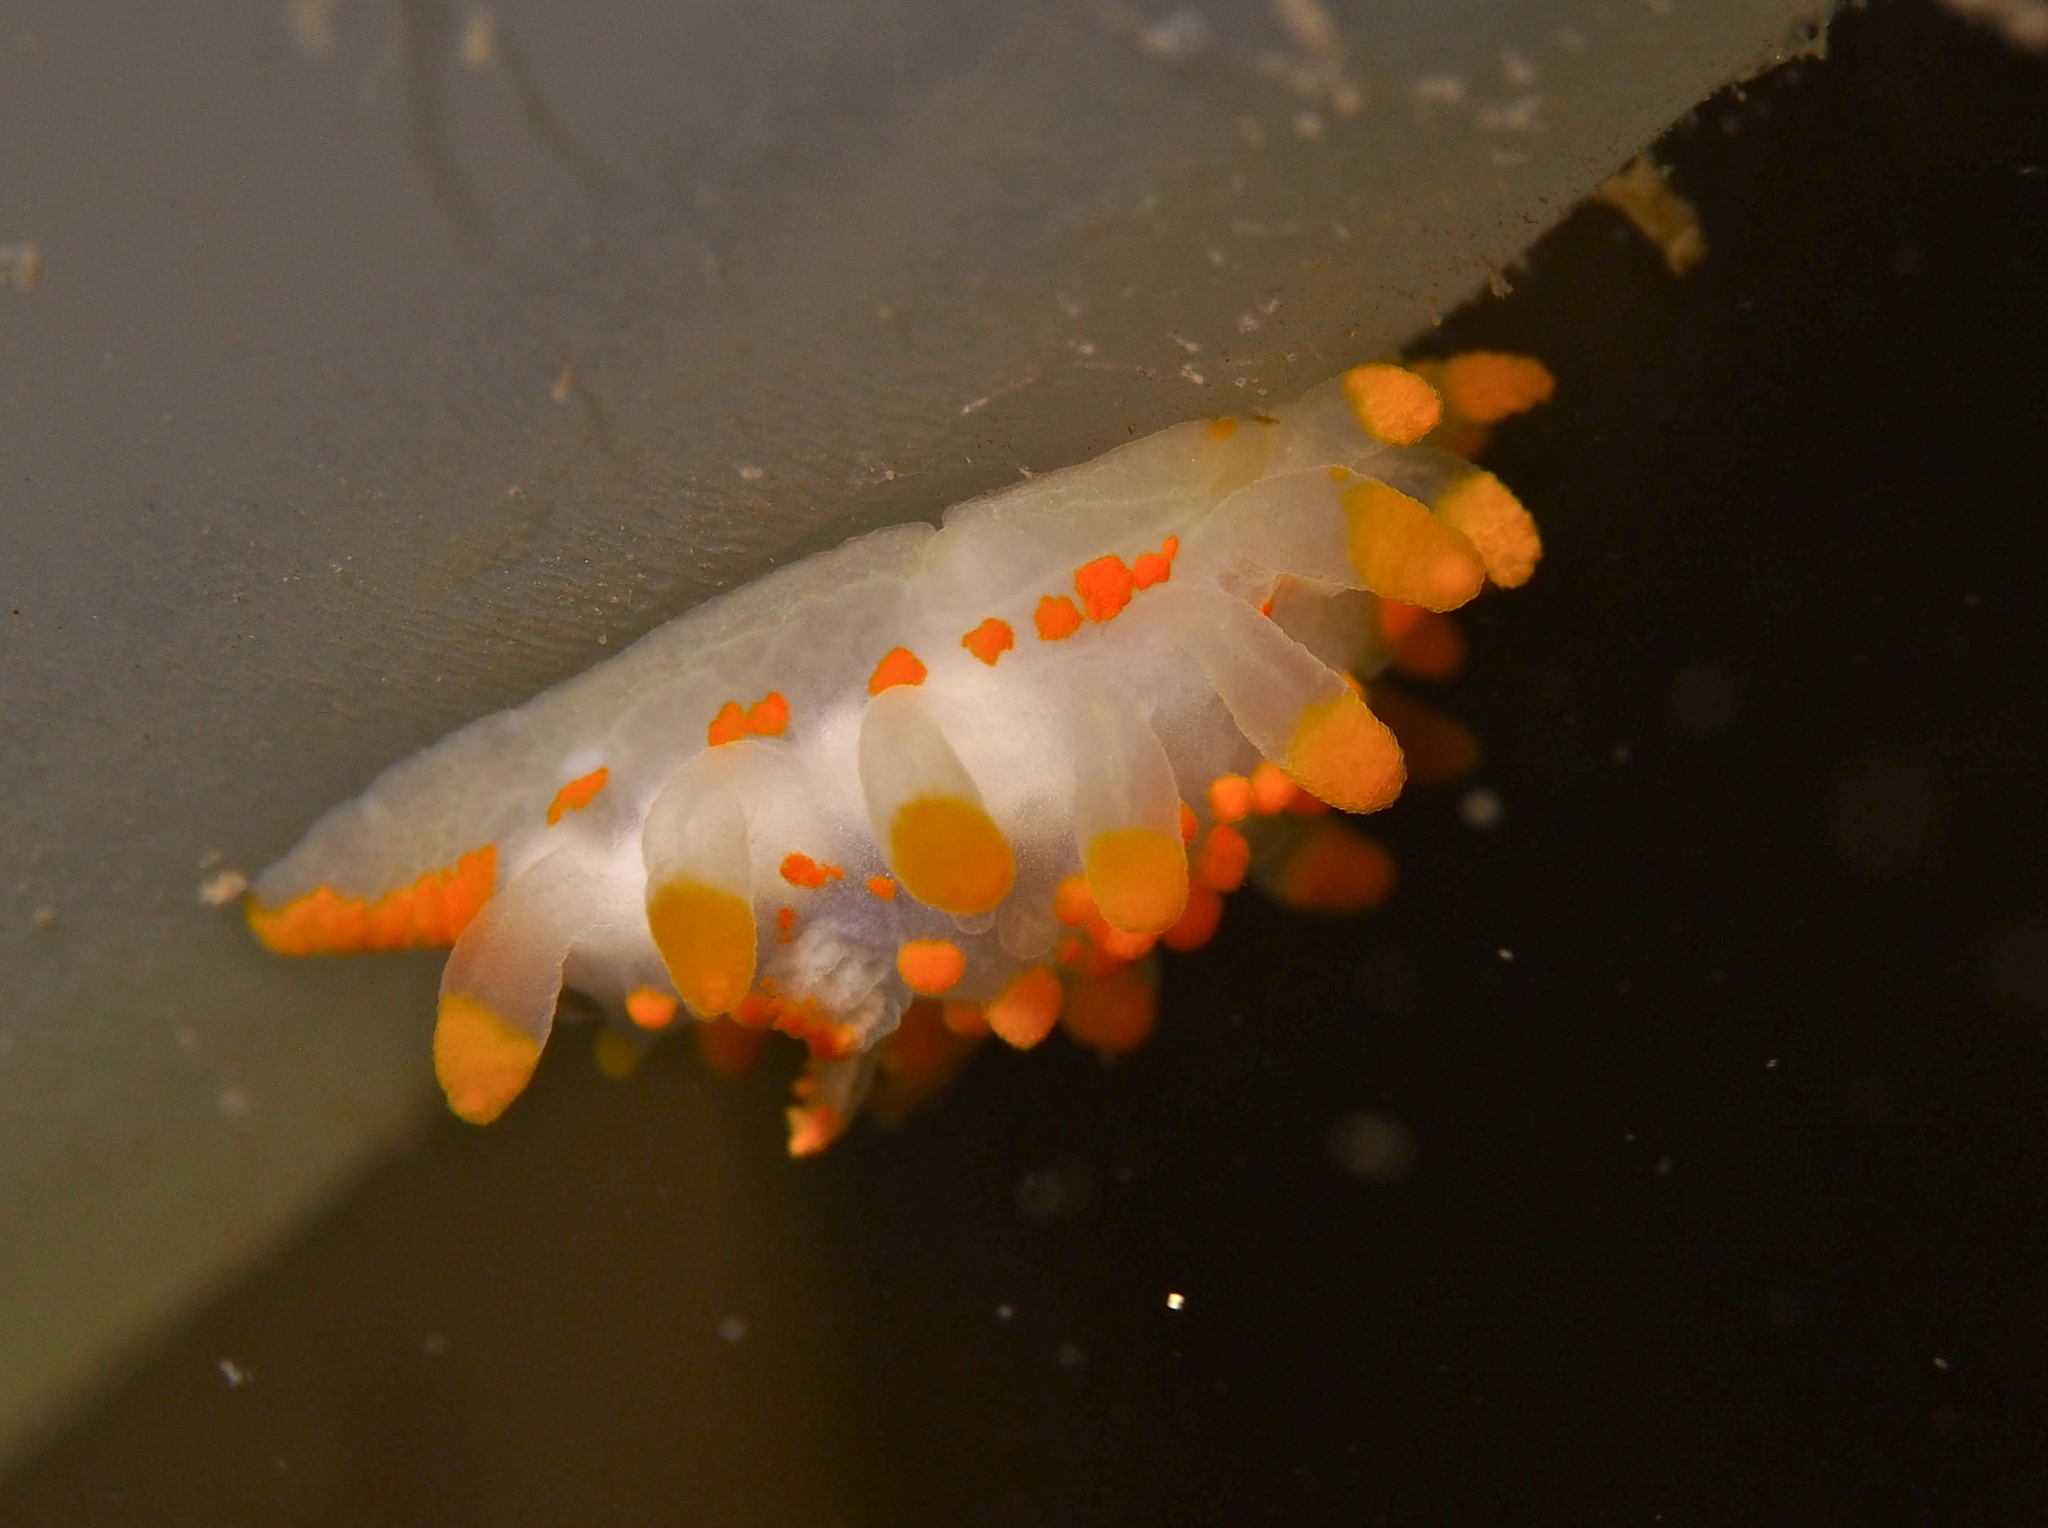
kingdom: Animalia
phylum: Mollusca
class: Gastropoda
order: Nudibranchia
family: Polyceridae
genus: Limacia
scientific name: Limacia clavigera
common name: Orange-clubbed sea slug
